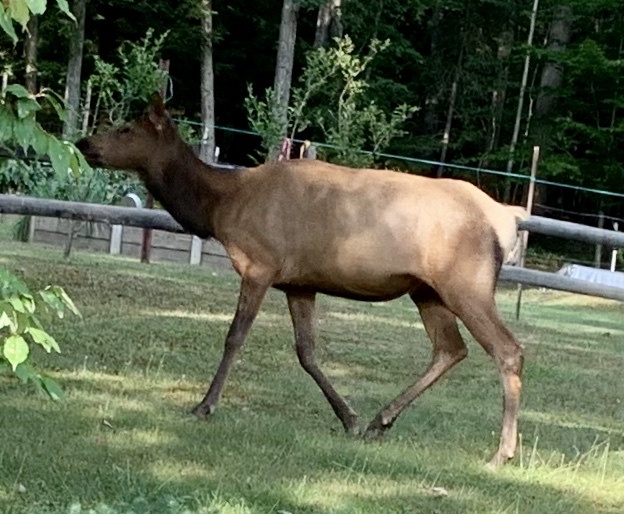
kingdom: Animalia
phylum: Chordata
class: Mammalia
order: Artiodactyla
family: Cervidae
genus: Cervus
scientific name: Cervus elaphus
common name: Red deer
